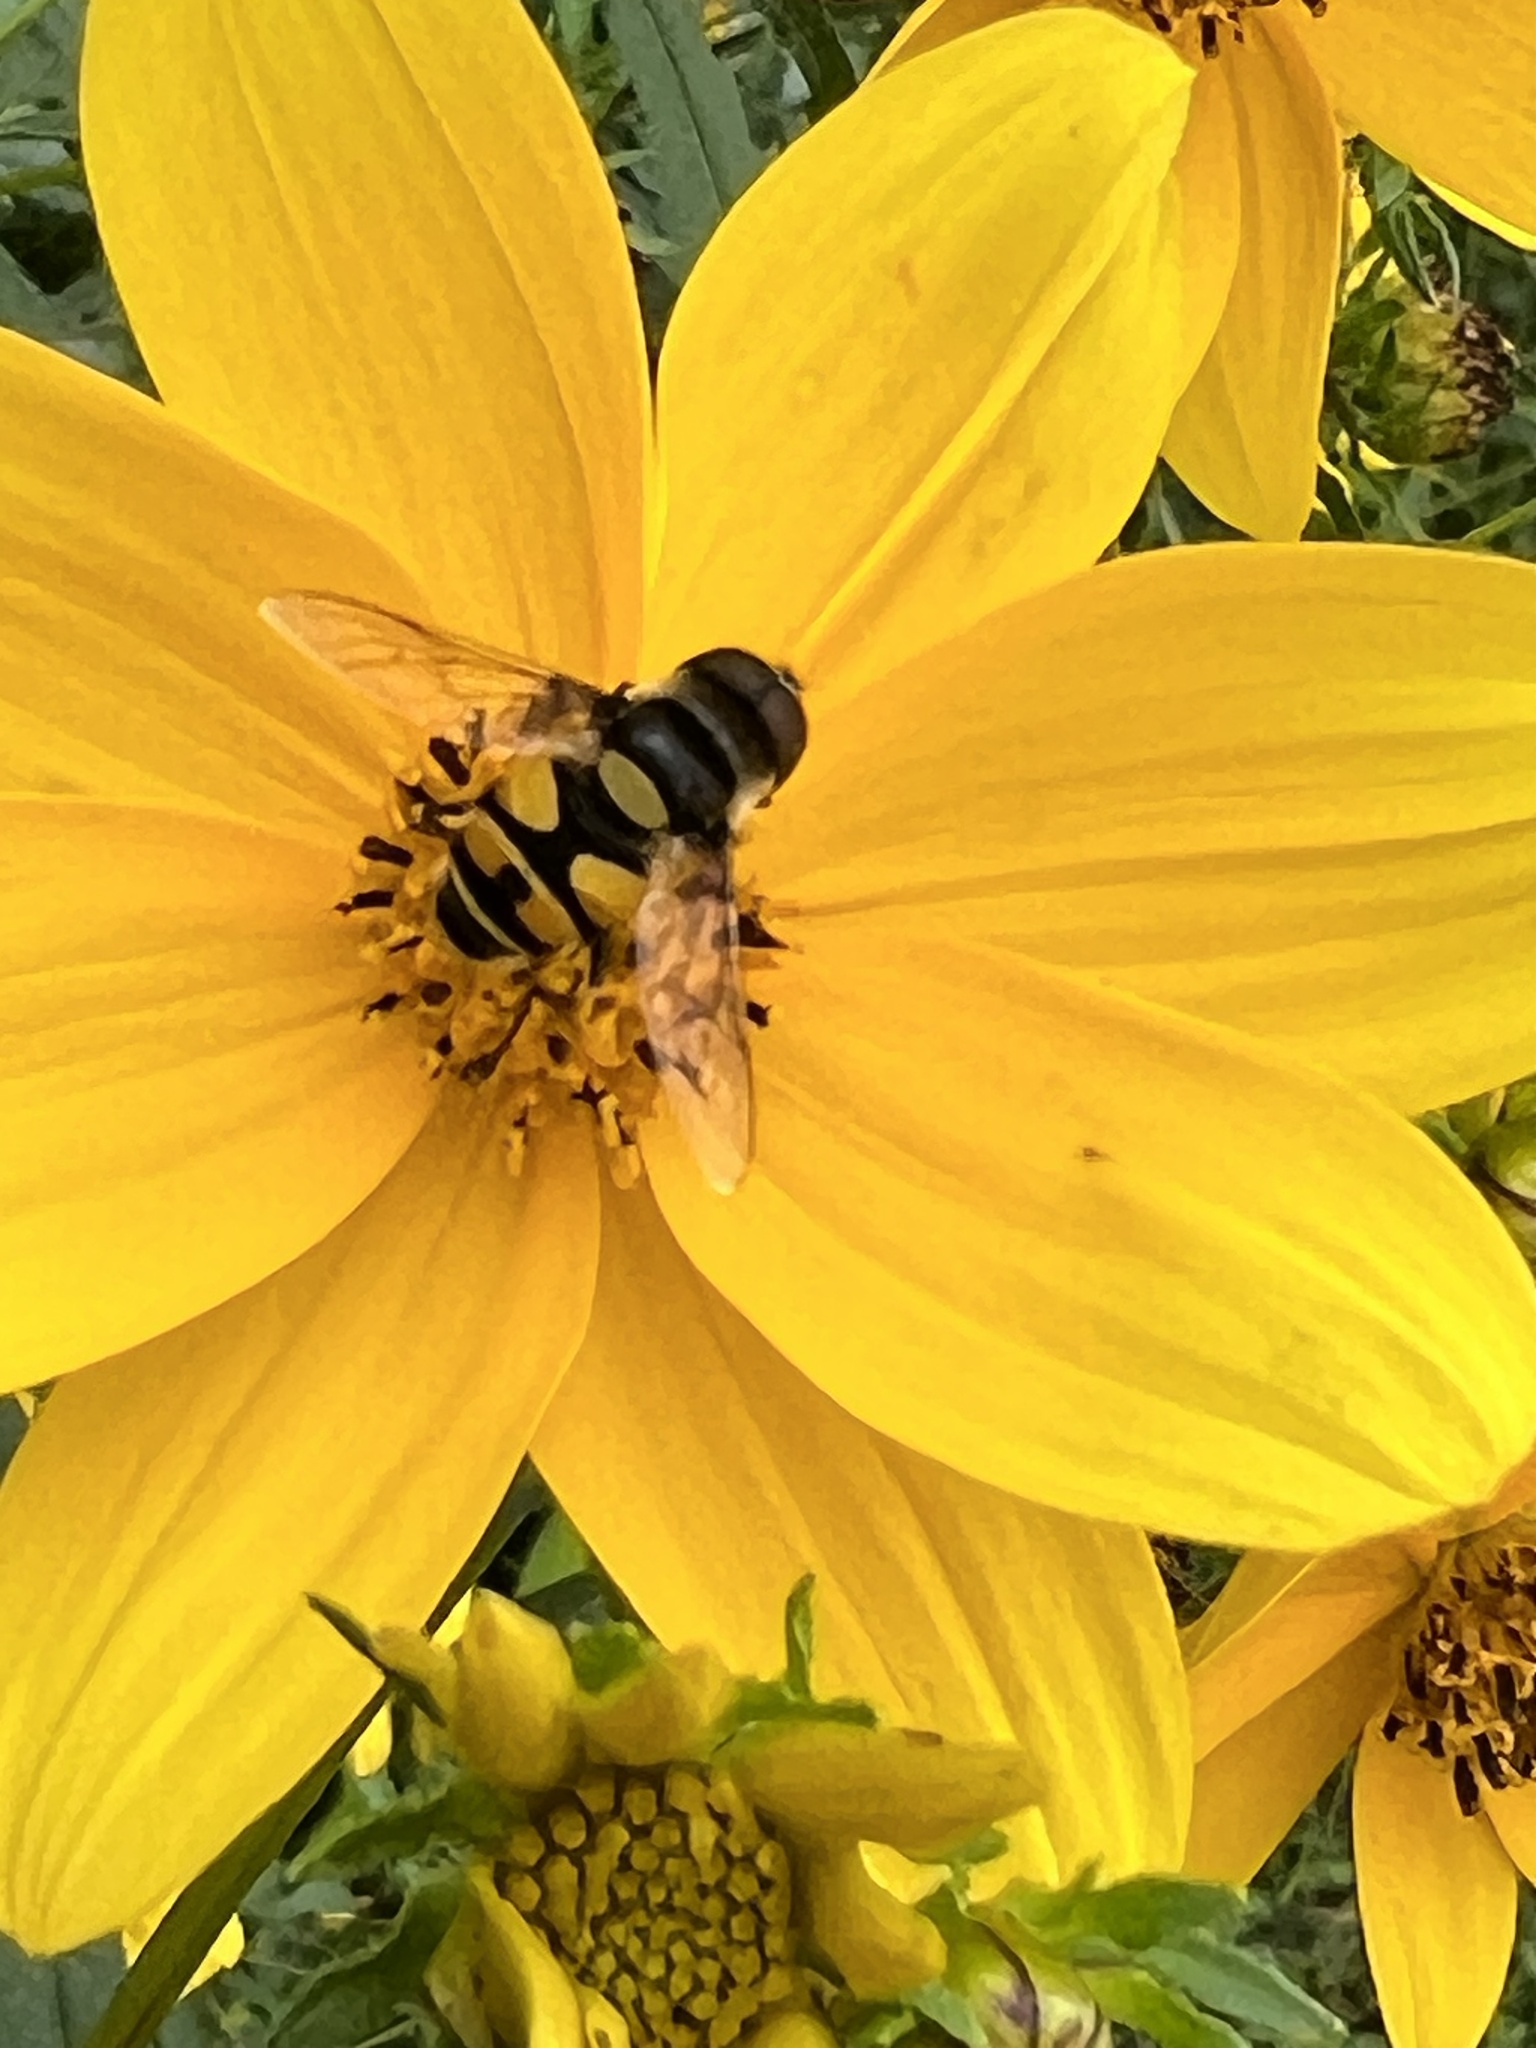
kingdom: Animalia
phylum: Arthropoda
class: Insecta
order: Diptera
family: Syrphidae
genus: Eristalis
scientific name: Eristalis transversa
